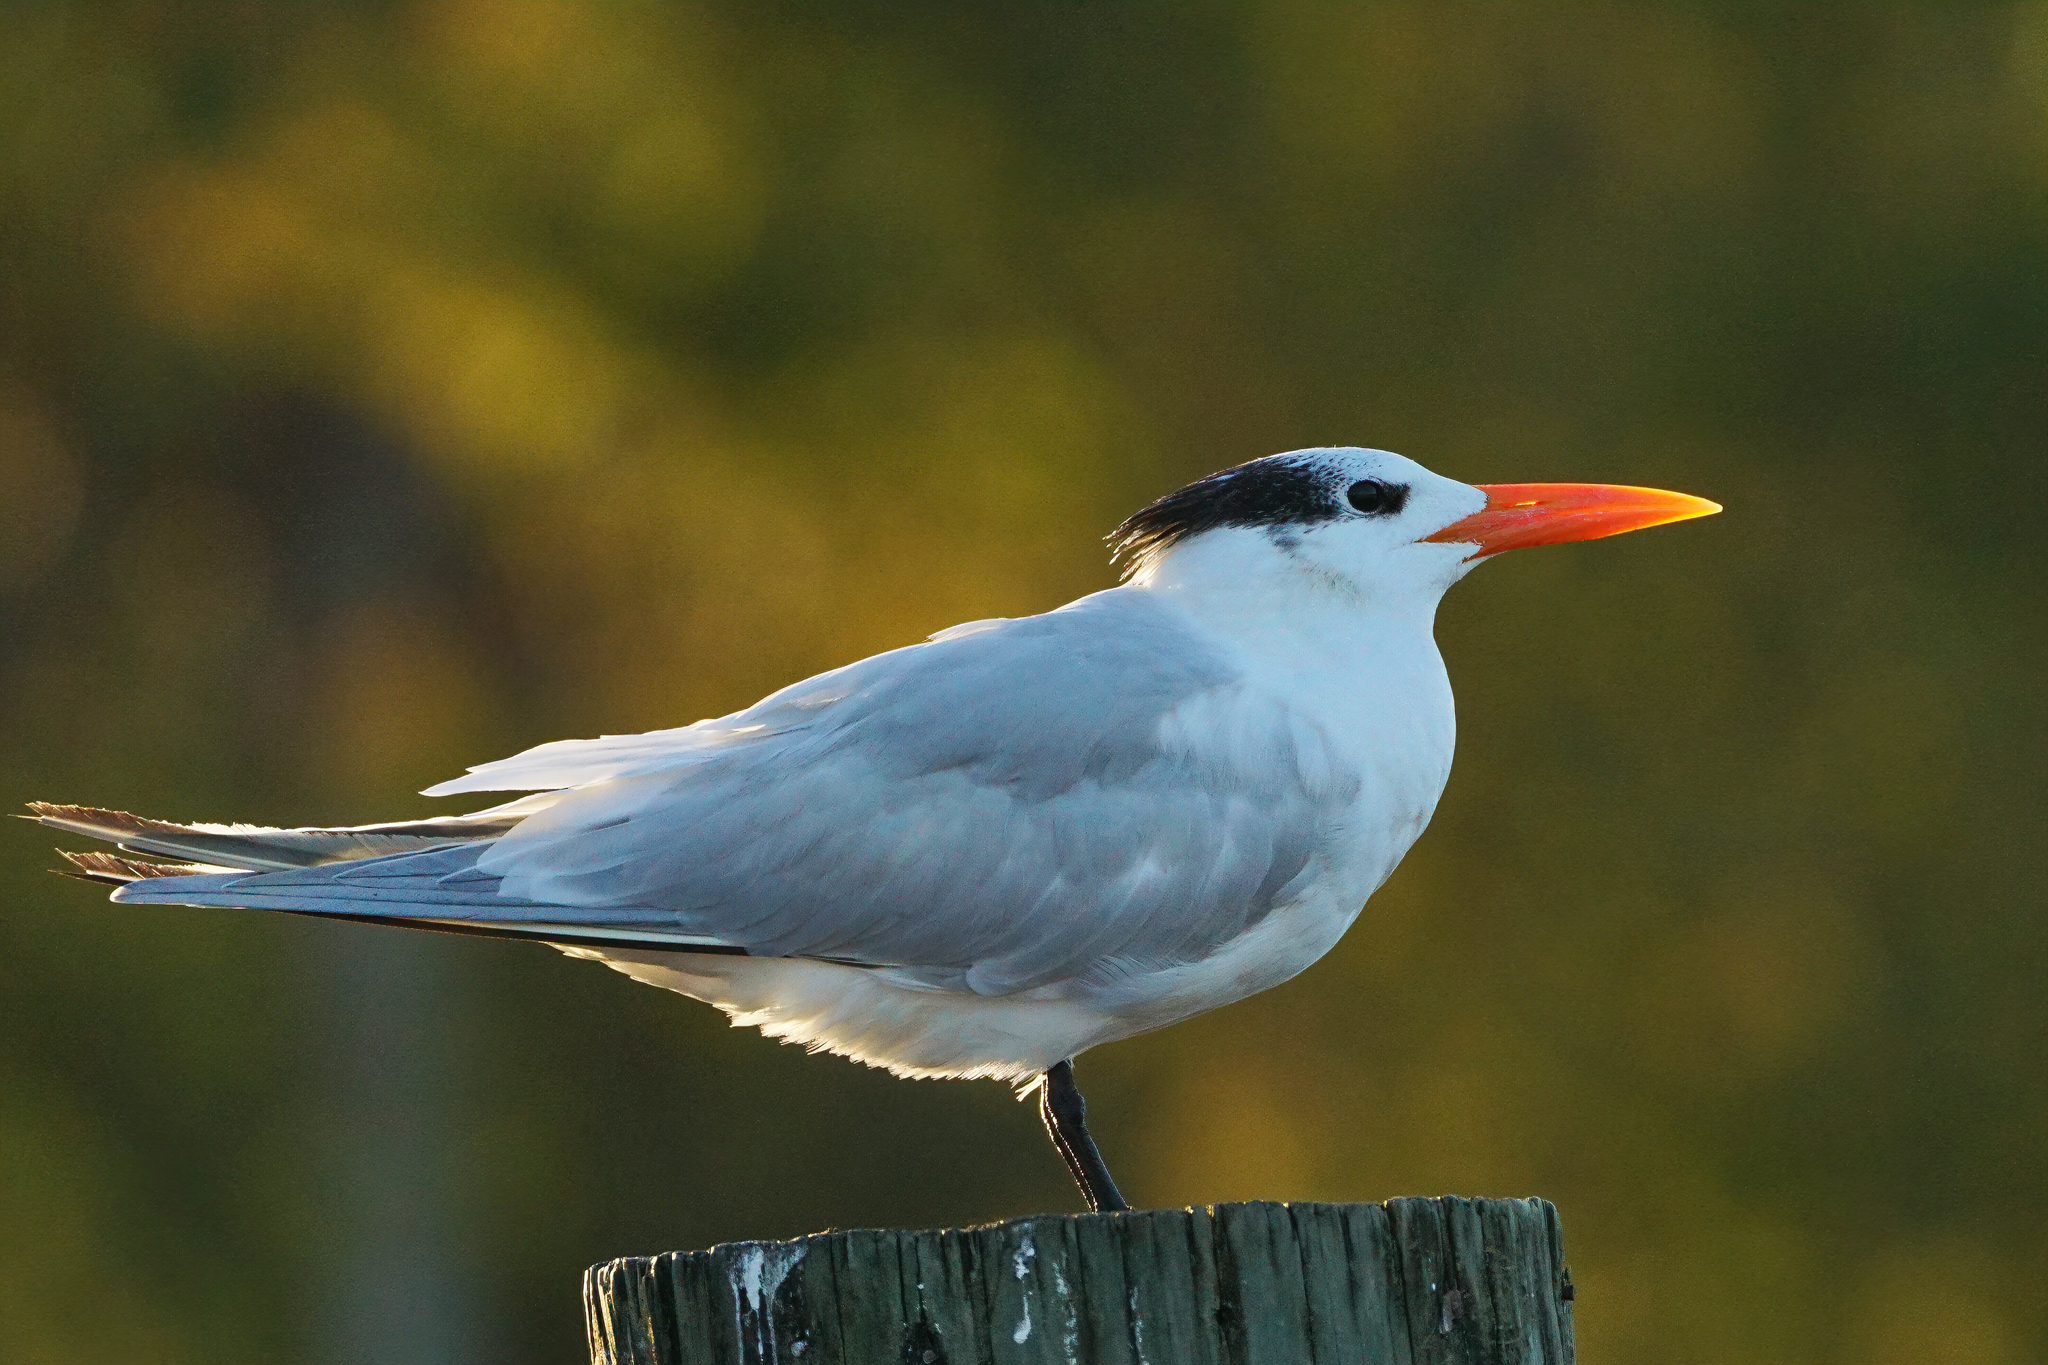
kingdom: Animalia
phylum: Chordata
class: Aves
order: Charadriiformes
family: Laridae
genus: Thalasseus
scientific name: Thalasseus maximus
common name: Royal tern
